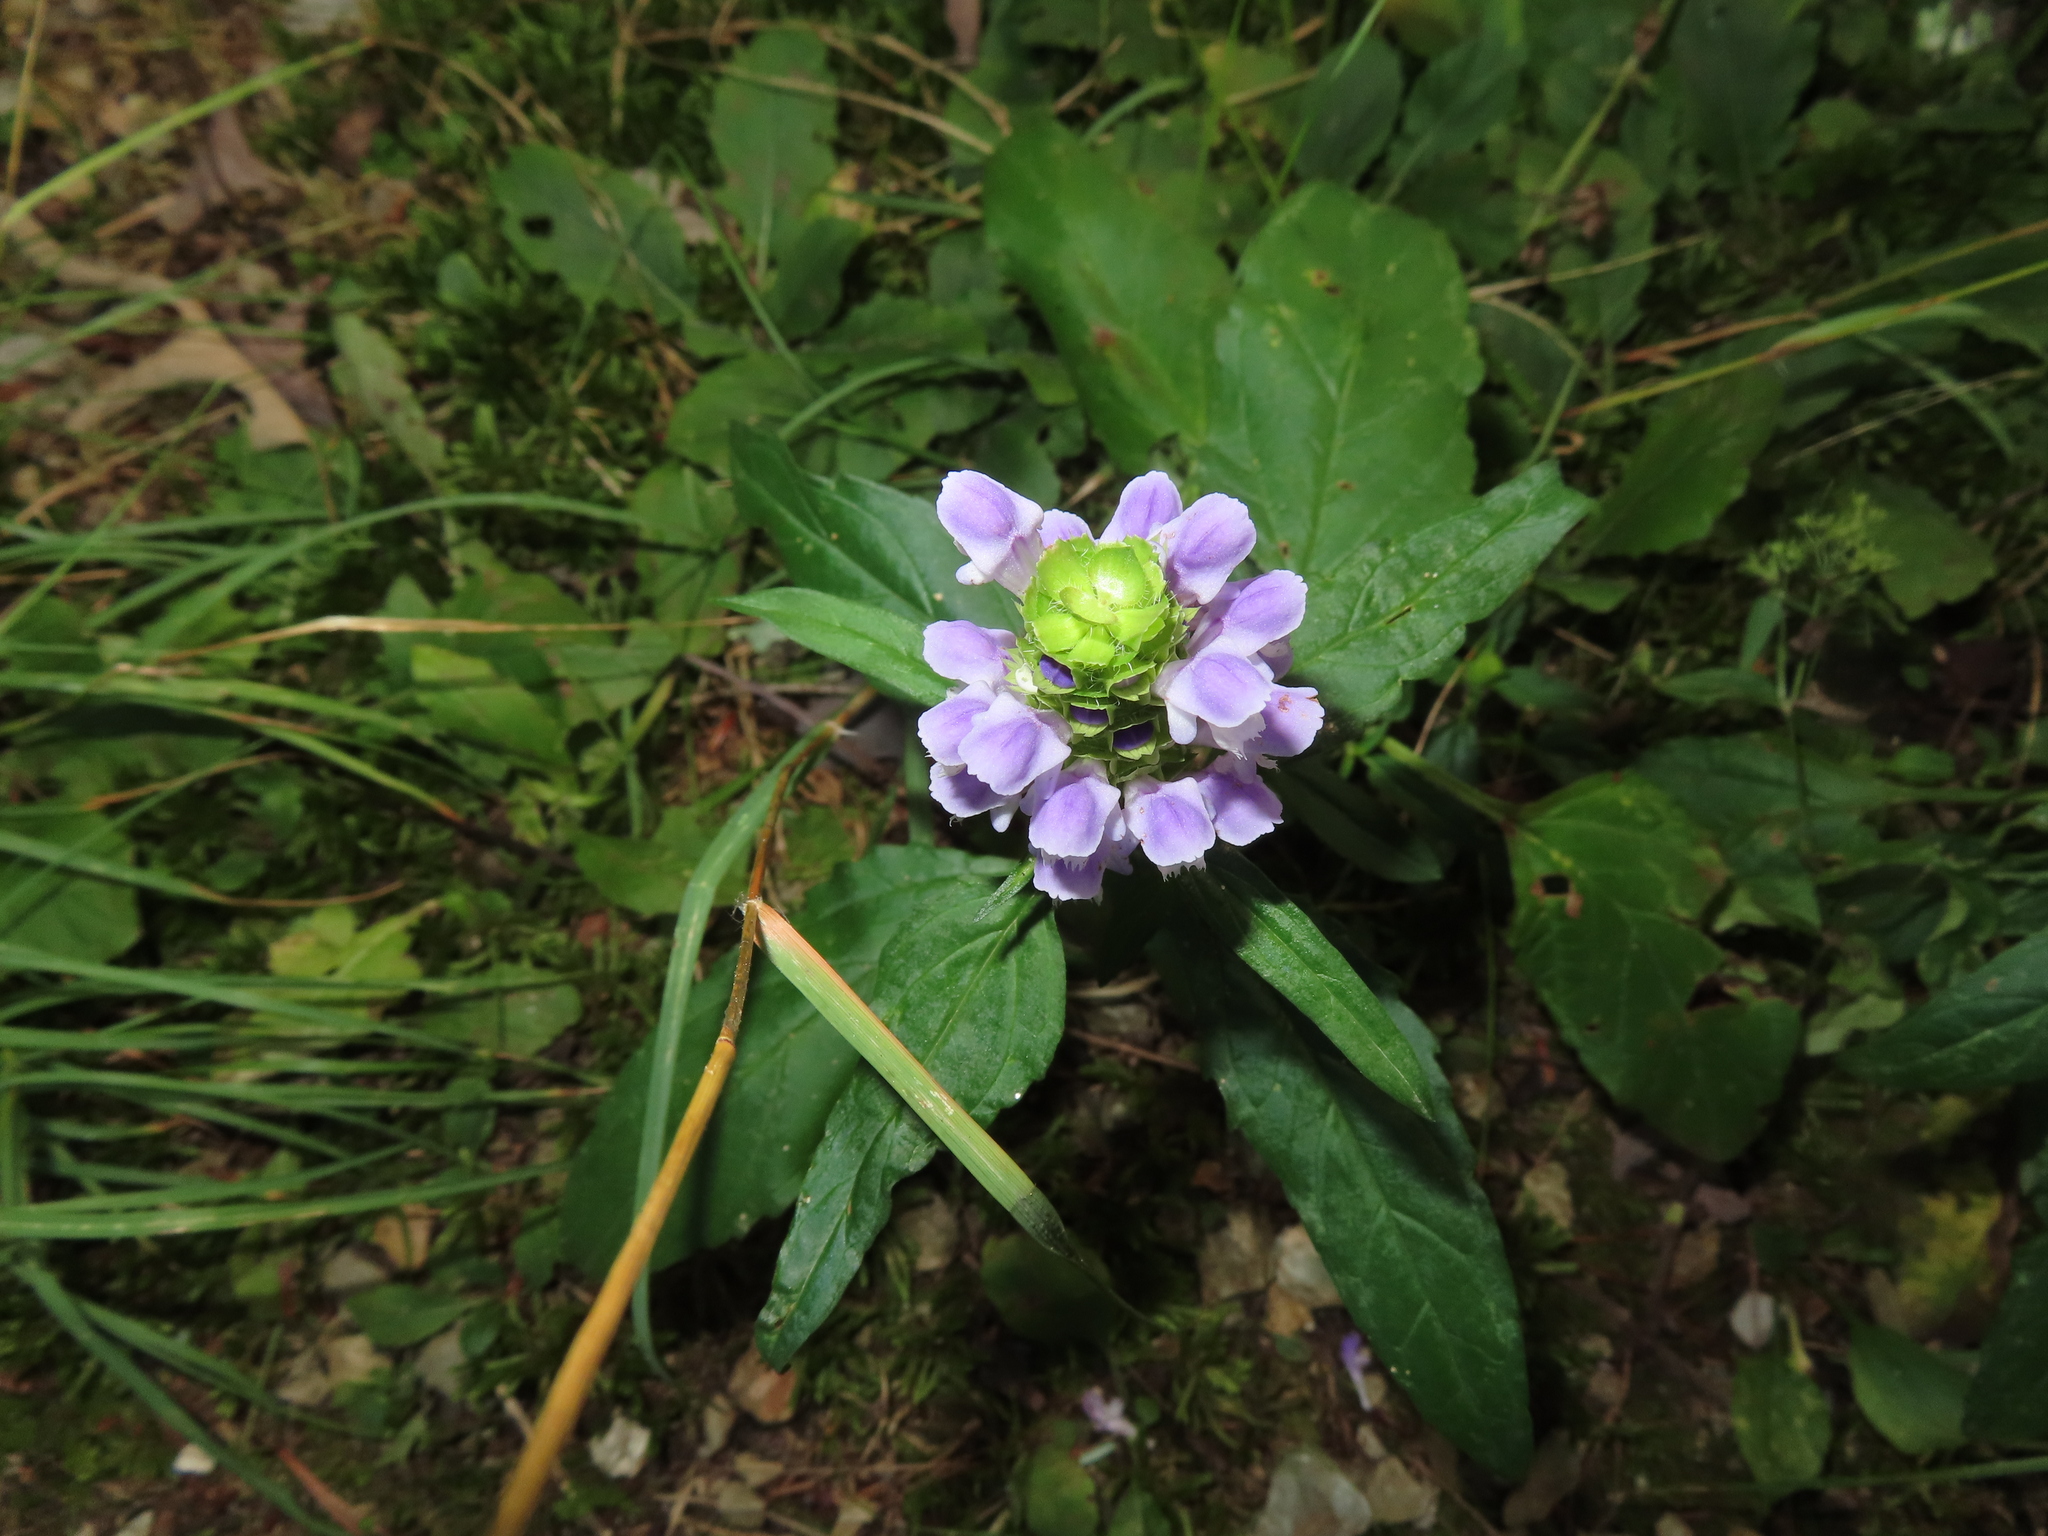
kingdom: Plantae
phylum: Tracheophyta
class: Magnoliopsida
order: Lamiales
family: Lamiaceae
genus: Prunella
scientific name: Prunella vulgaris
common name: Heal-all
